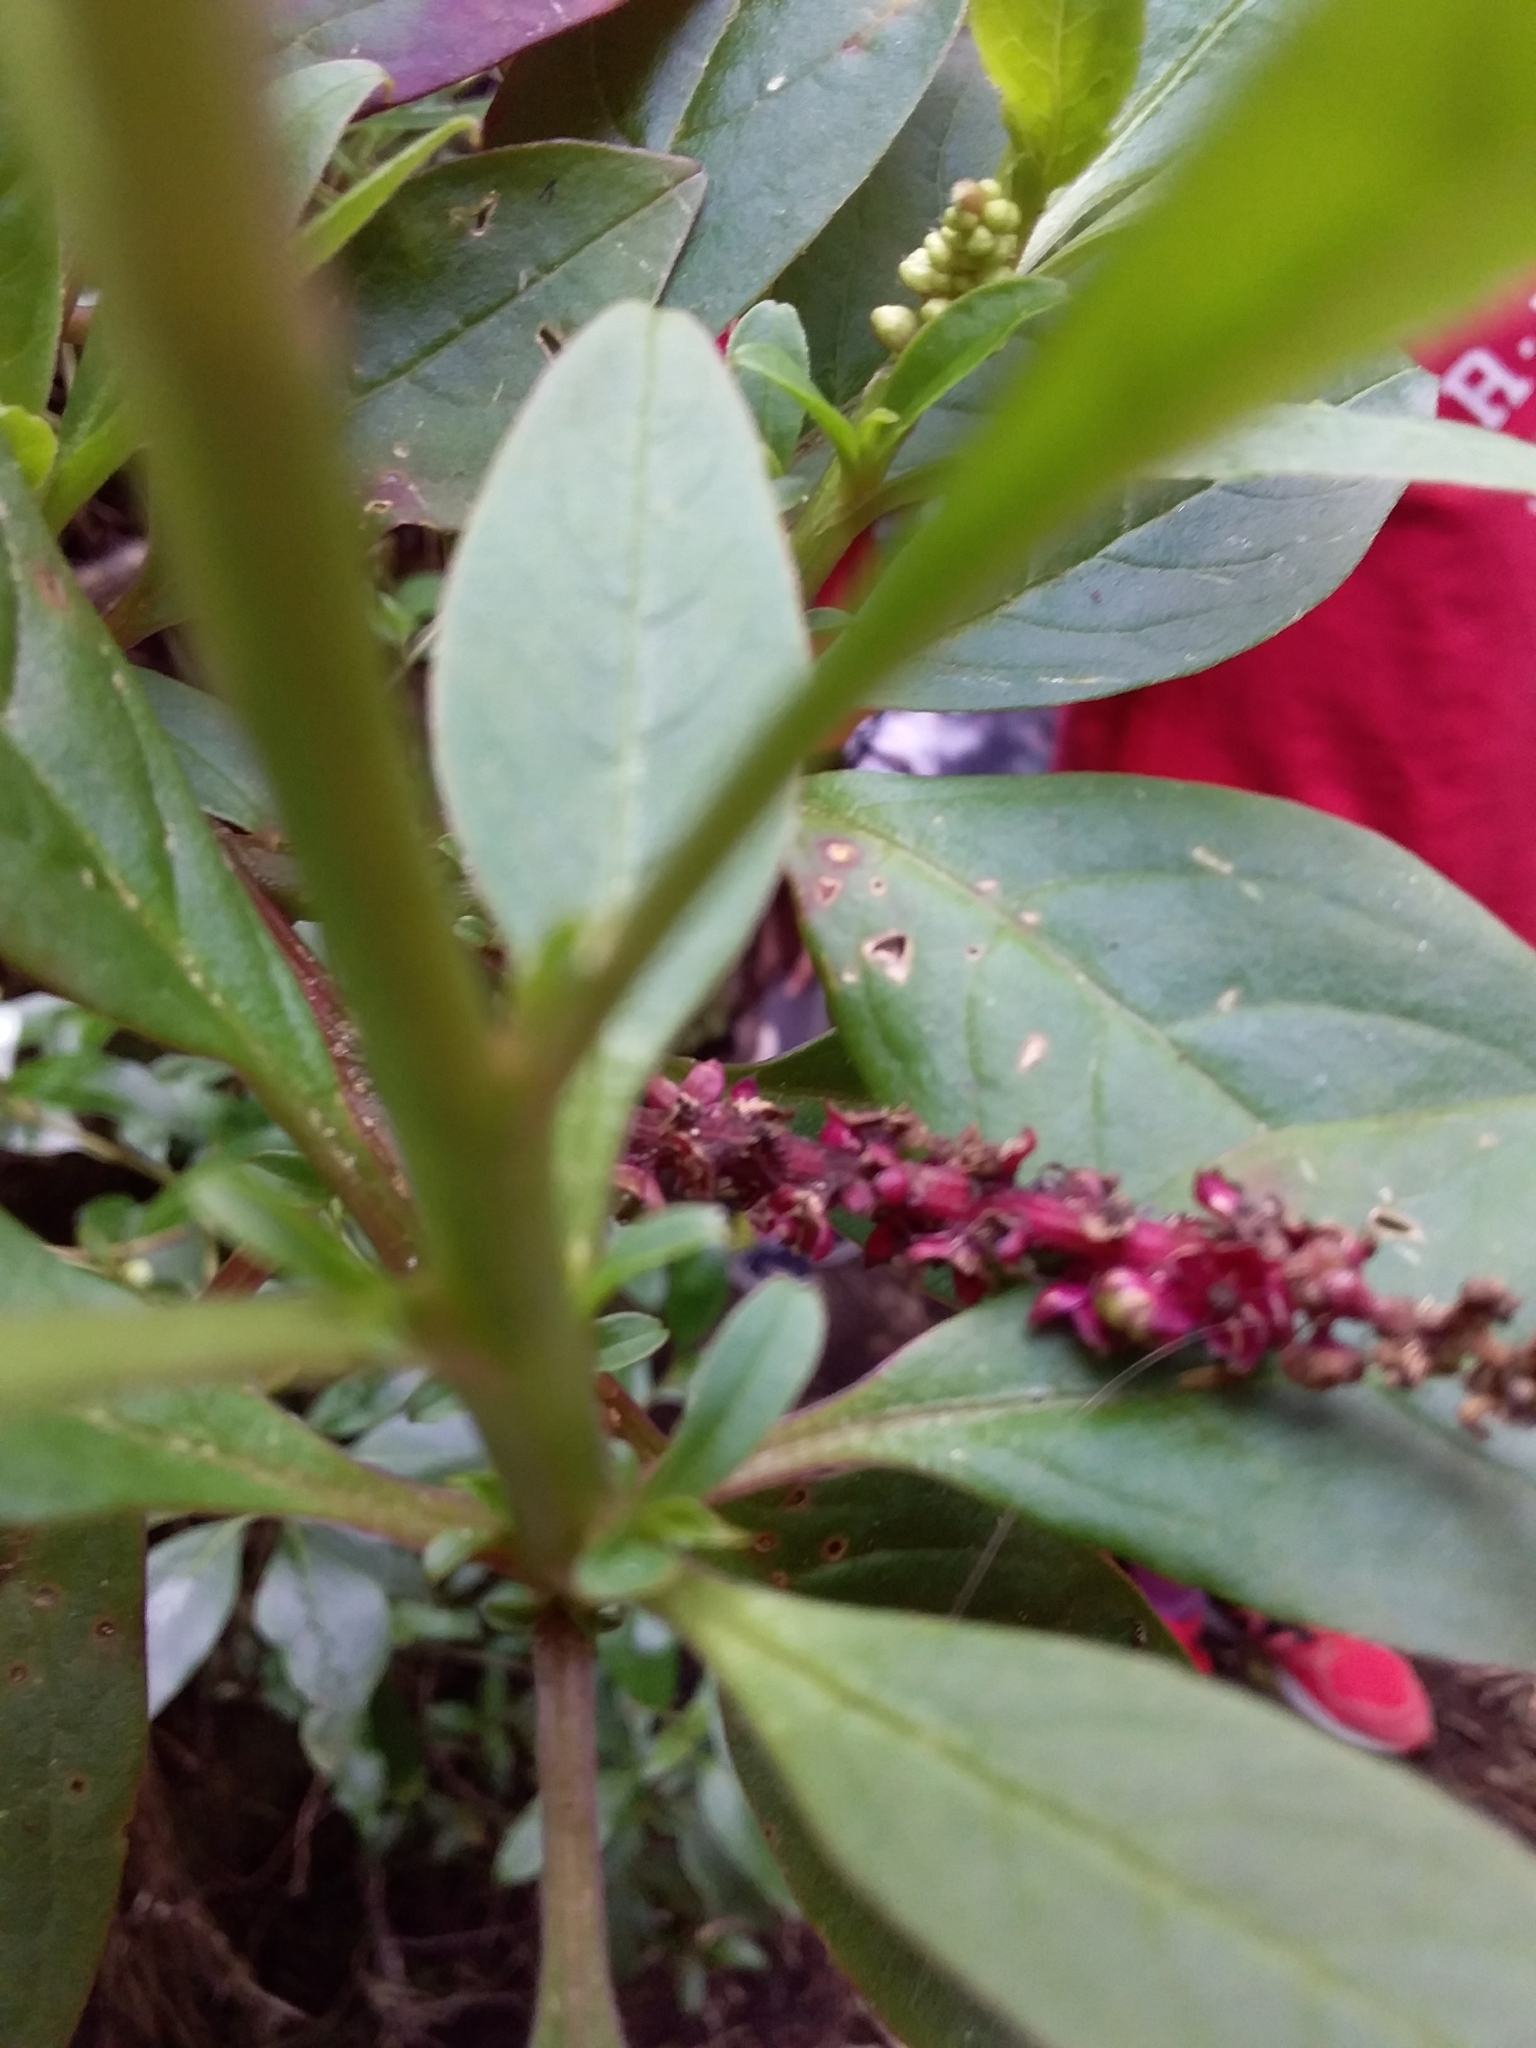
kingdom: Plantae
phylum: Tracheophyta
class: Magnoliopsida
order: Caryophyllales
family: Phytolaccaceae
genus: Phytolacca
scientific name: Phytolacca icosandra
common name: Button pokeweed
